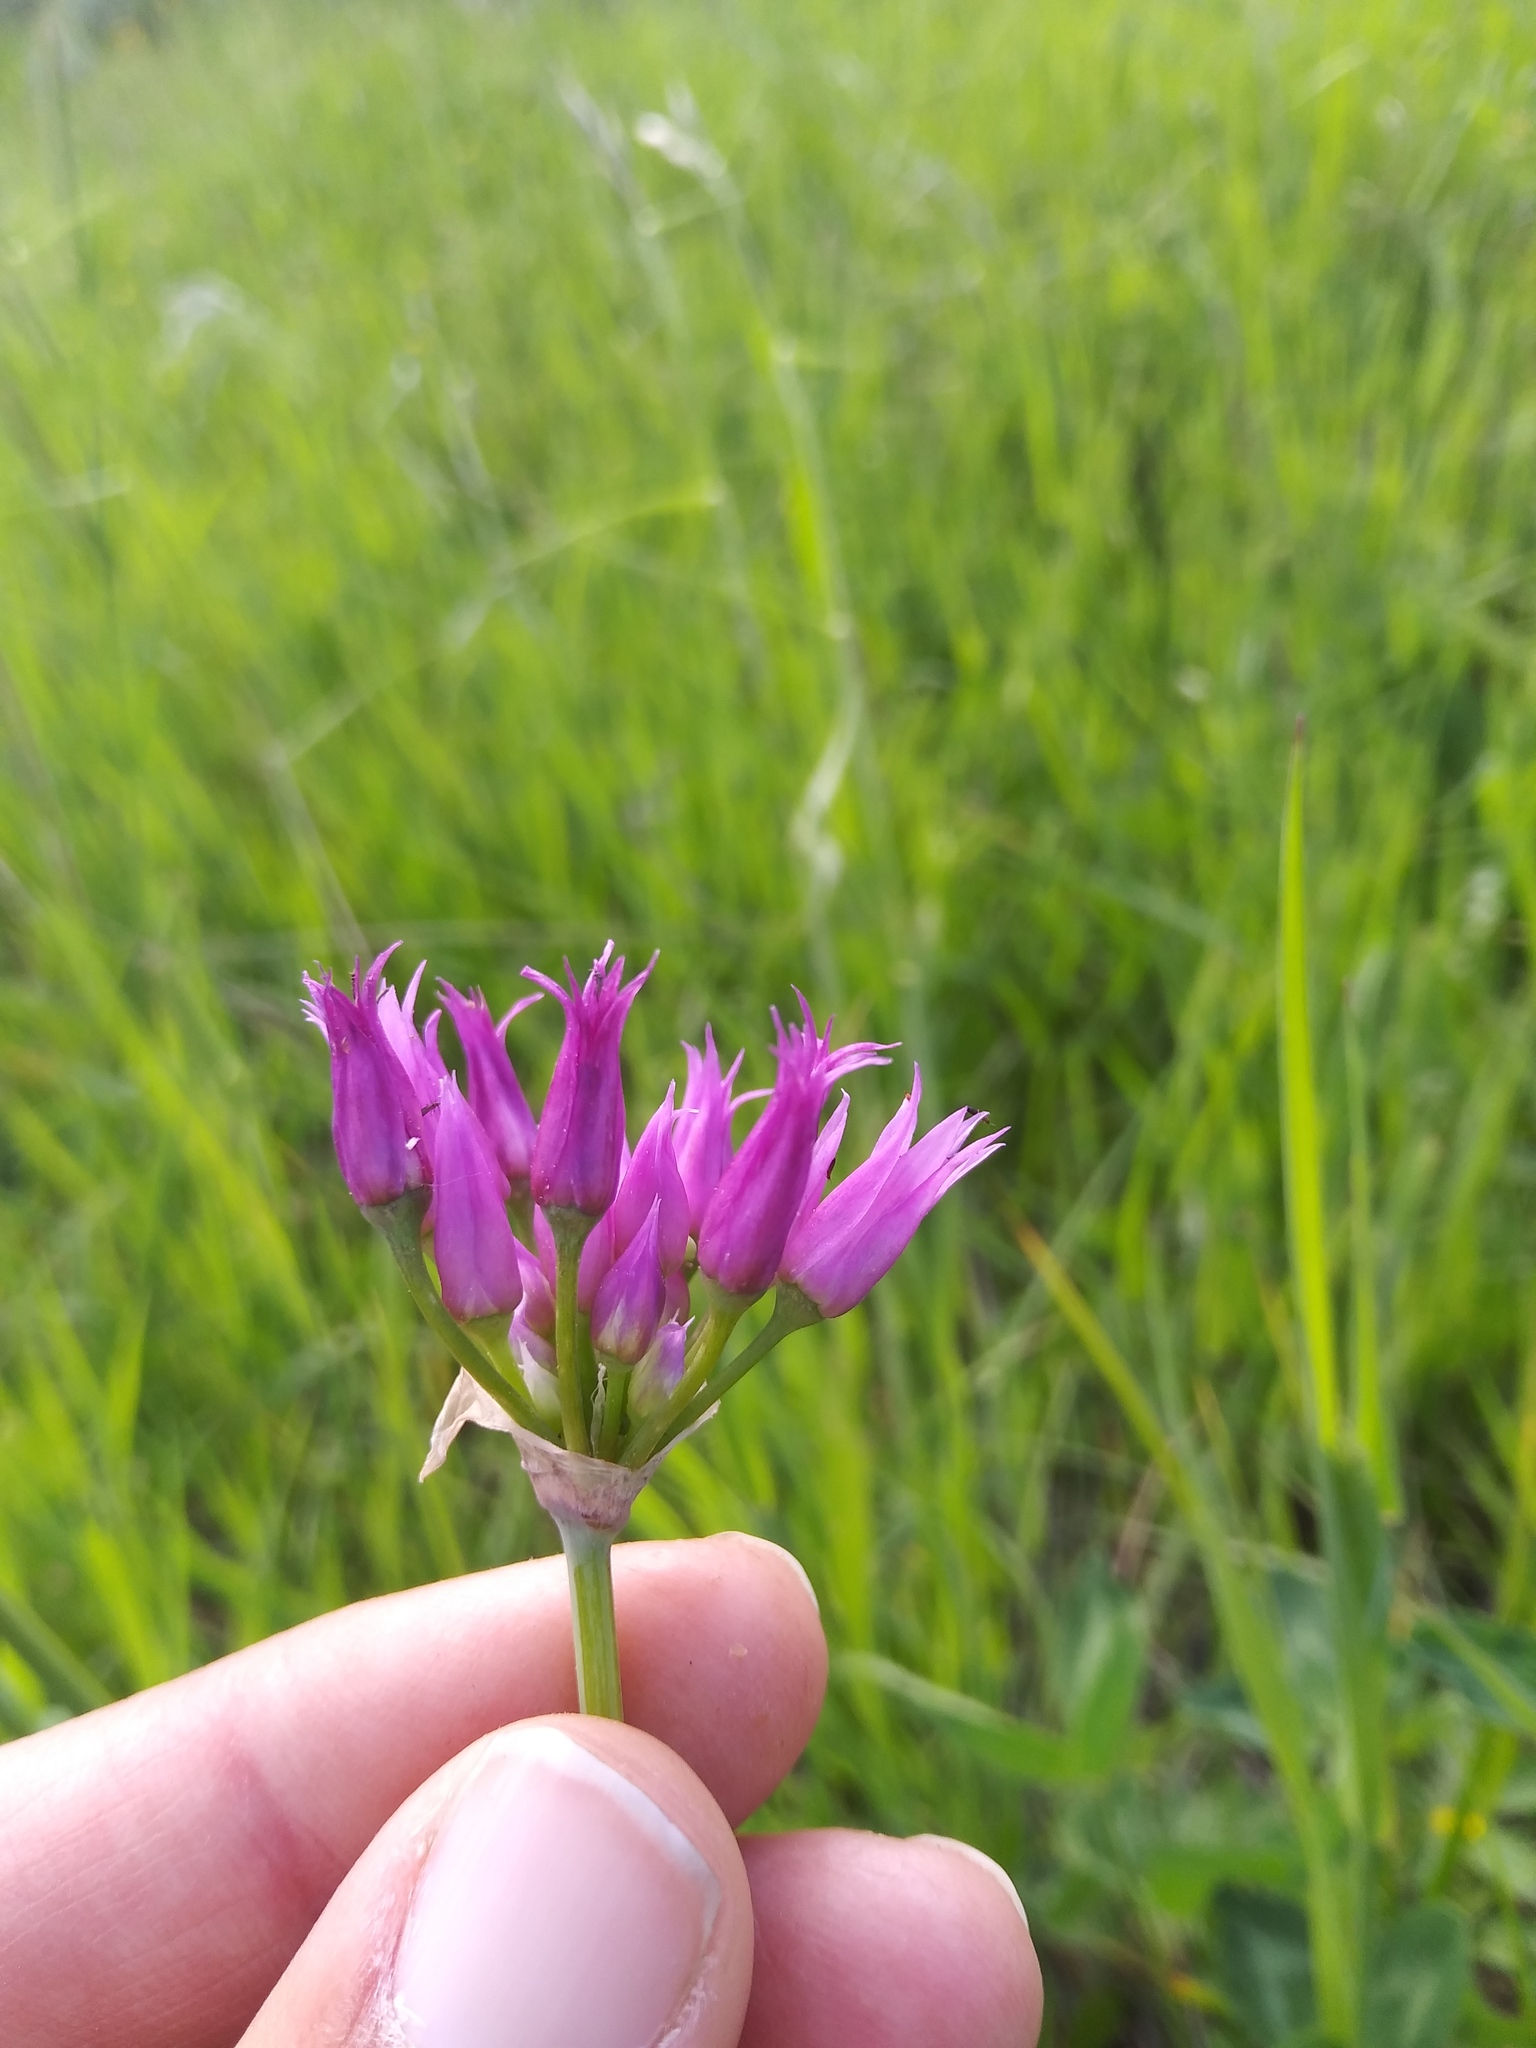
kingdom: Plantae
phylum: Tracheophyta
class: Liliopsida
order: Asparagales
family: Amaryllidaceae
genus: Allium
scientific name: Allium brevistylum
